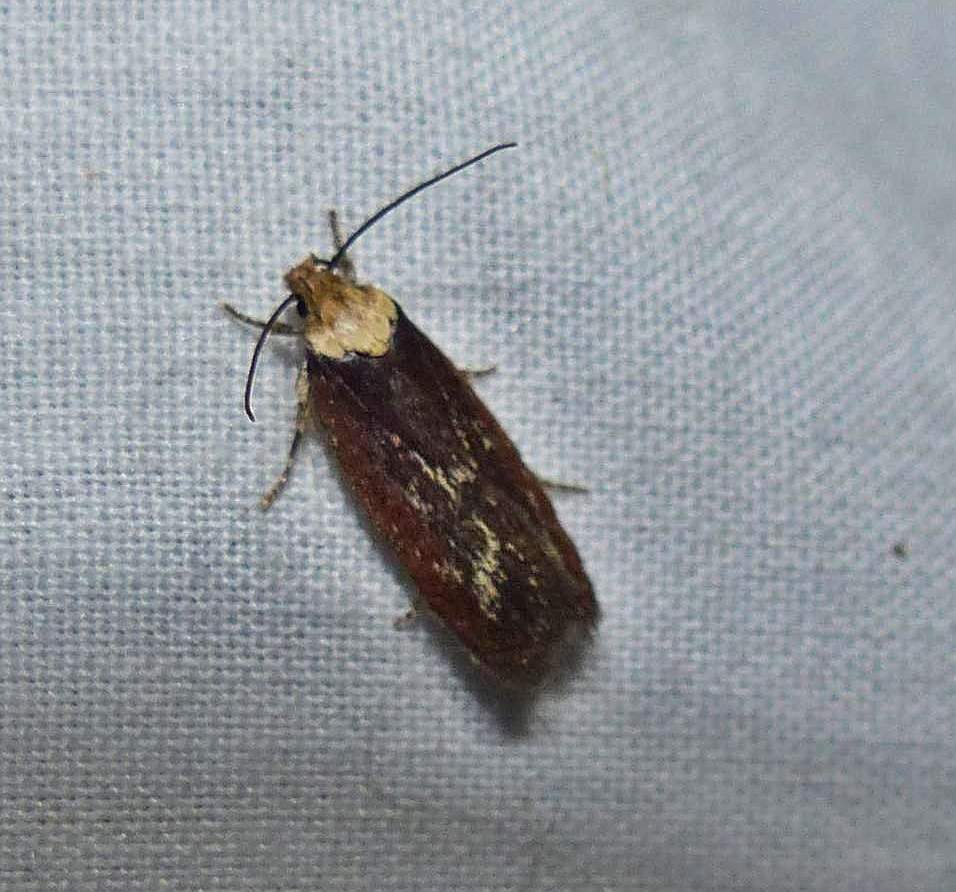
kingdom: Animalia
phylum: Arthropoda
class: Insecta
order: Lepidoptera
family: Depressariidae
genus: Depressaria
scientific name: Depressaria depressana
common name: Lost flat-body
